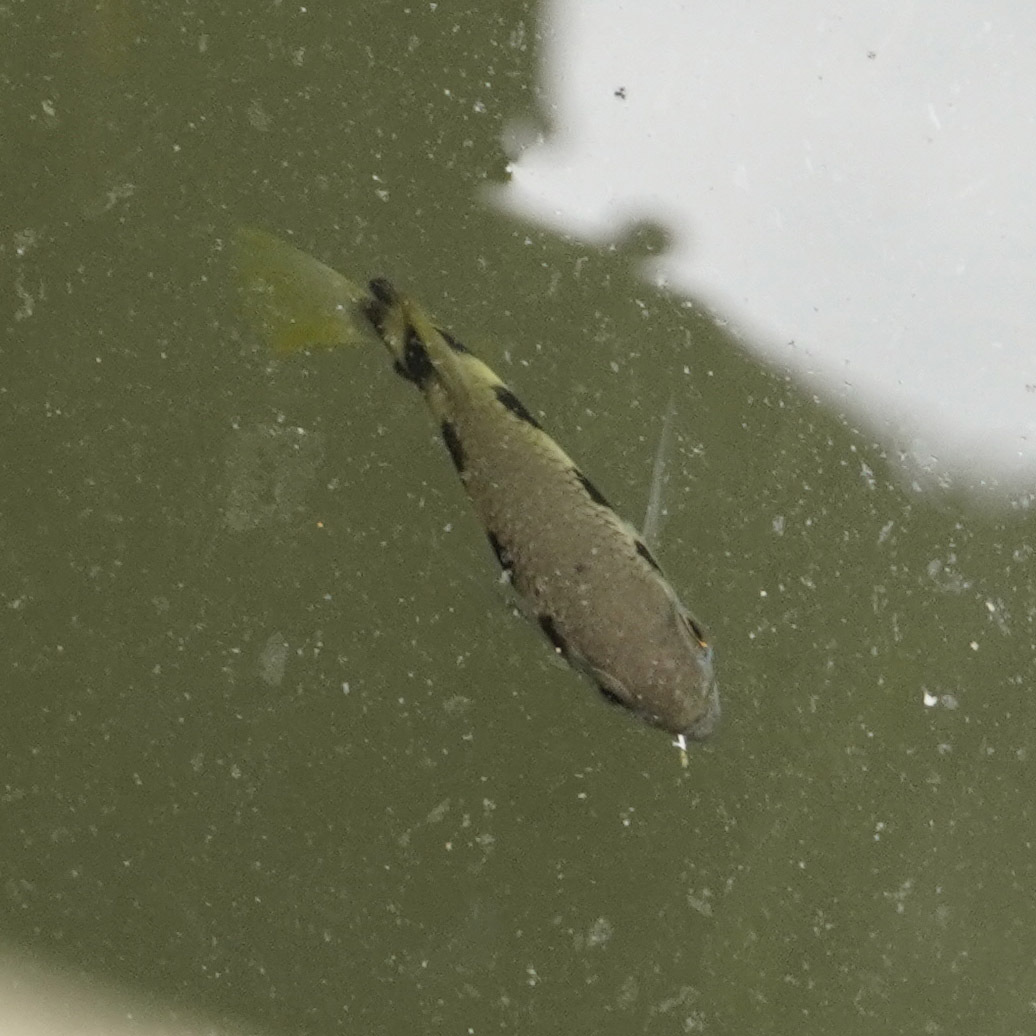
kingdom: Animalia
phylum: Chordata
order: Perciformes
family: Toxotidae
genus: Toxotes
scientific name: Toxotes jaculatrix
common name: Banded archerfish
